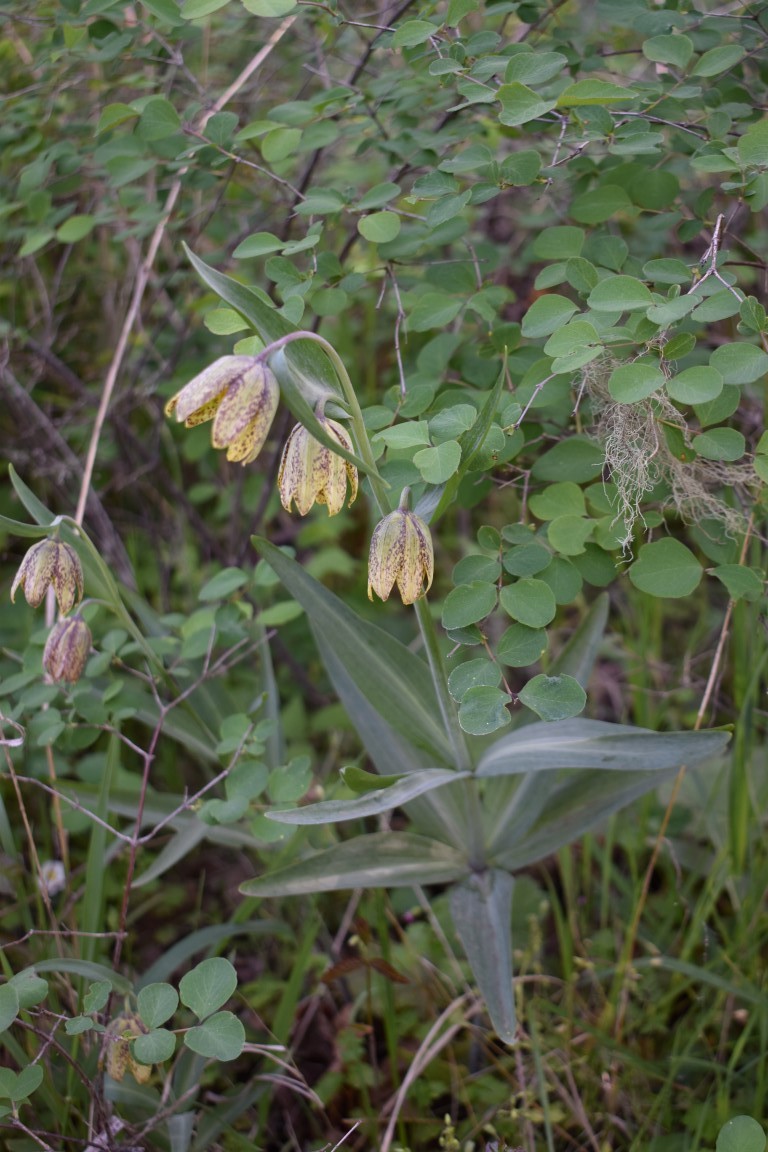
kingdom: Plantae
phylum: Tracheophyta
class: Liliopsida
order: Liliales
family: Liliaceae
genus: Fritillaria
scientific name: Fritillaria affinis
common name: Ojai fritillary
